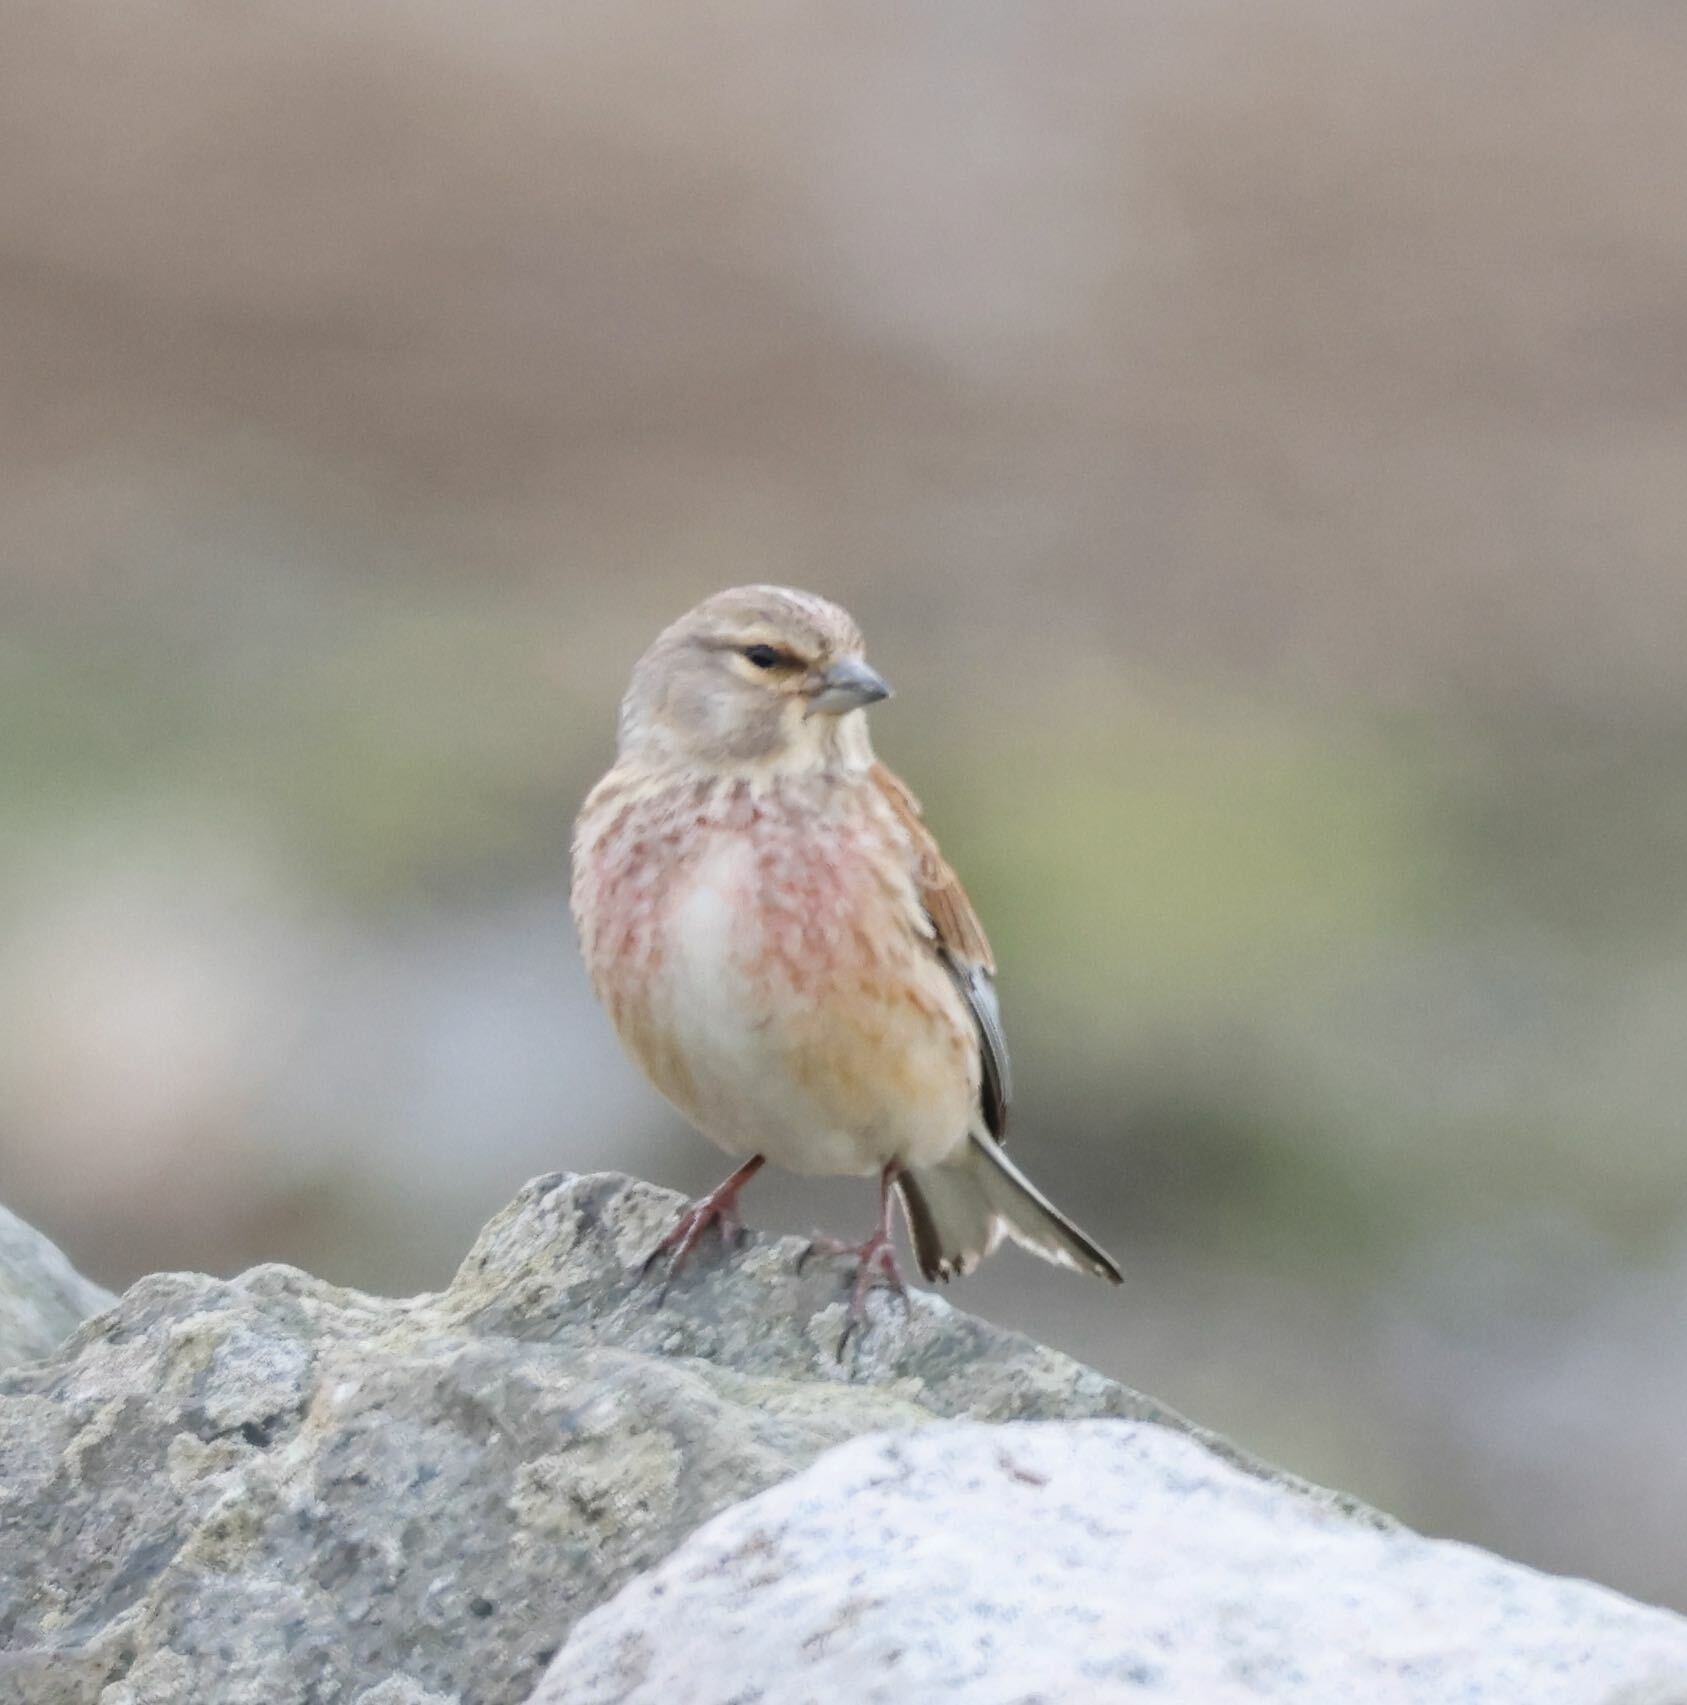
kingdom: Animalia
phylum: Chordata
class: Aves
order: Passeriformes
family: Fringillidae
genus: Linaria
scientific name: Linaria cannabina
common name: Common linnet
